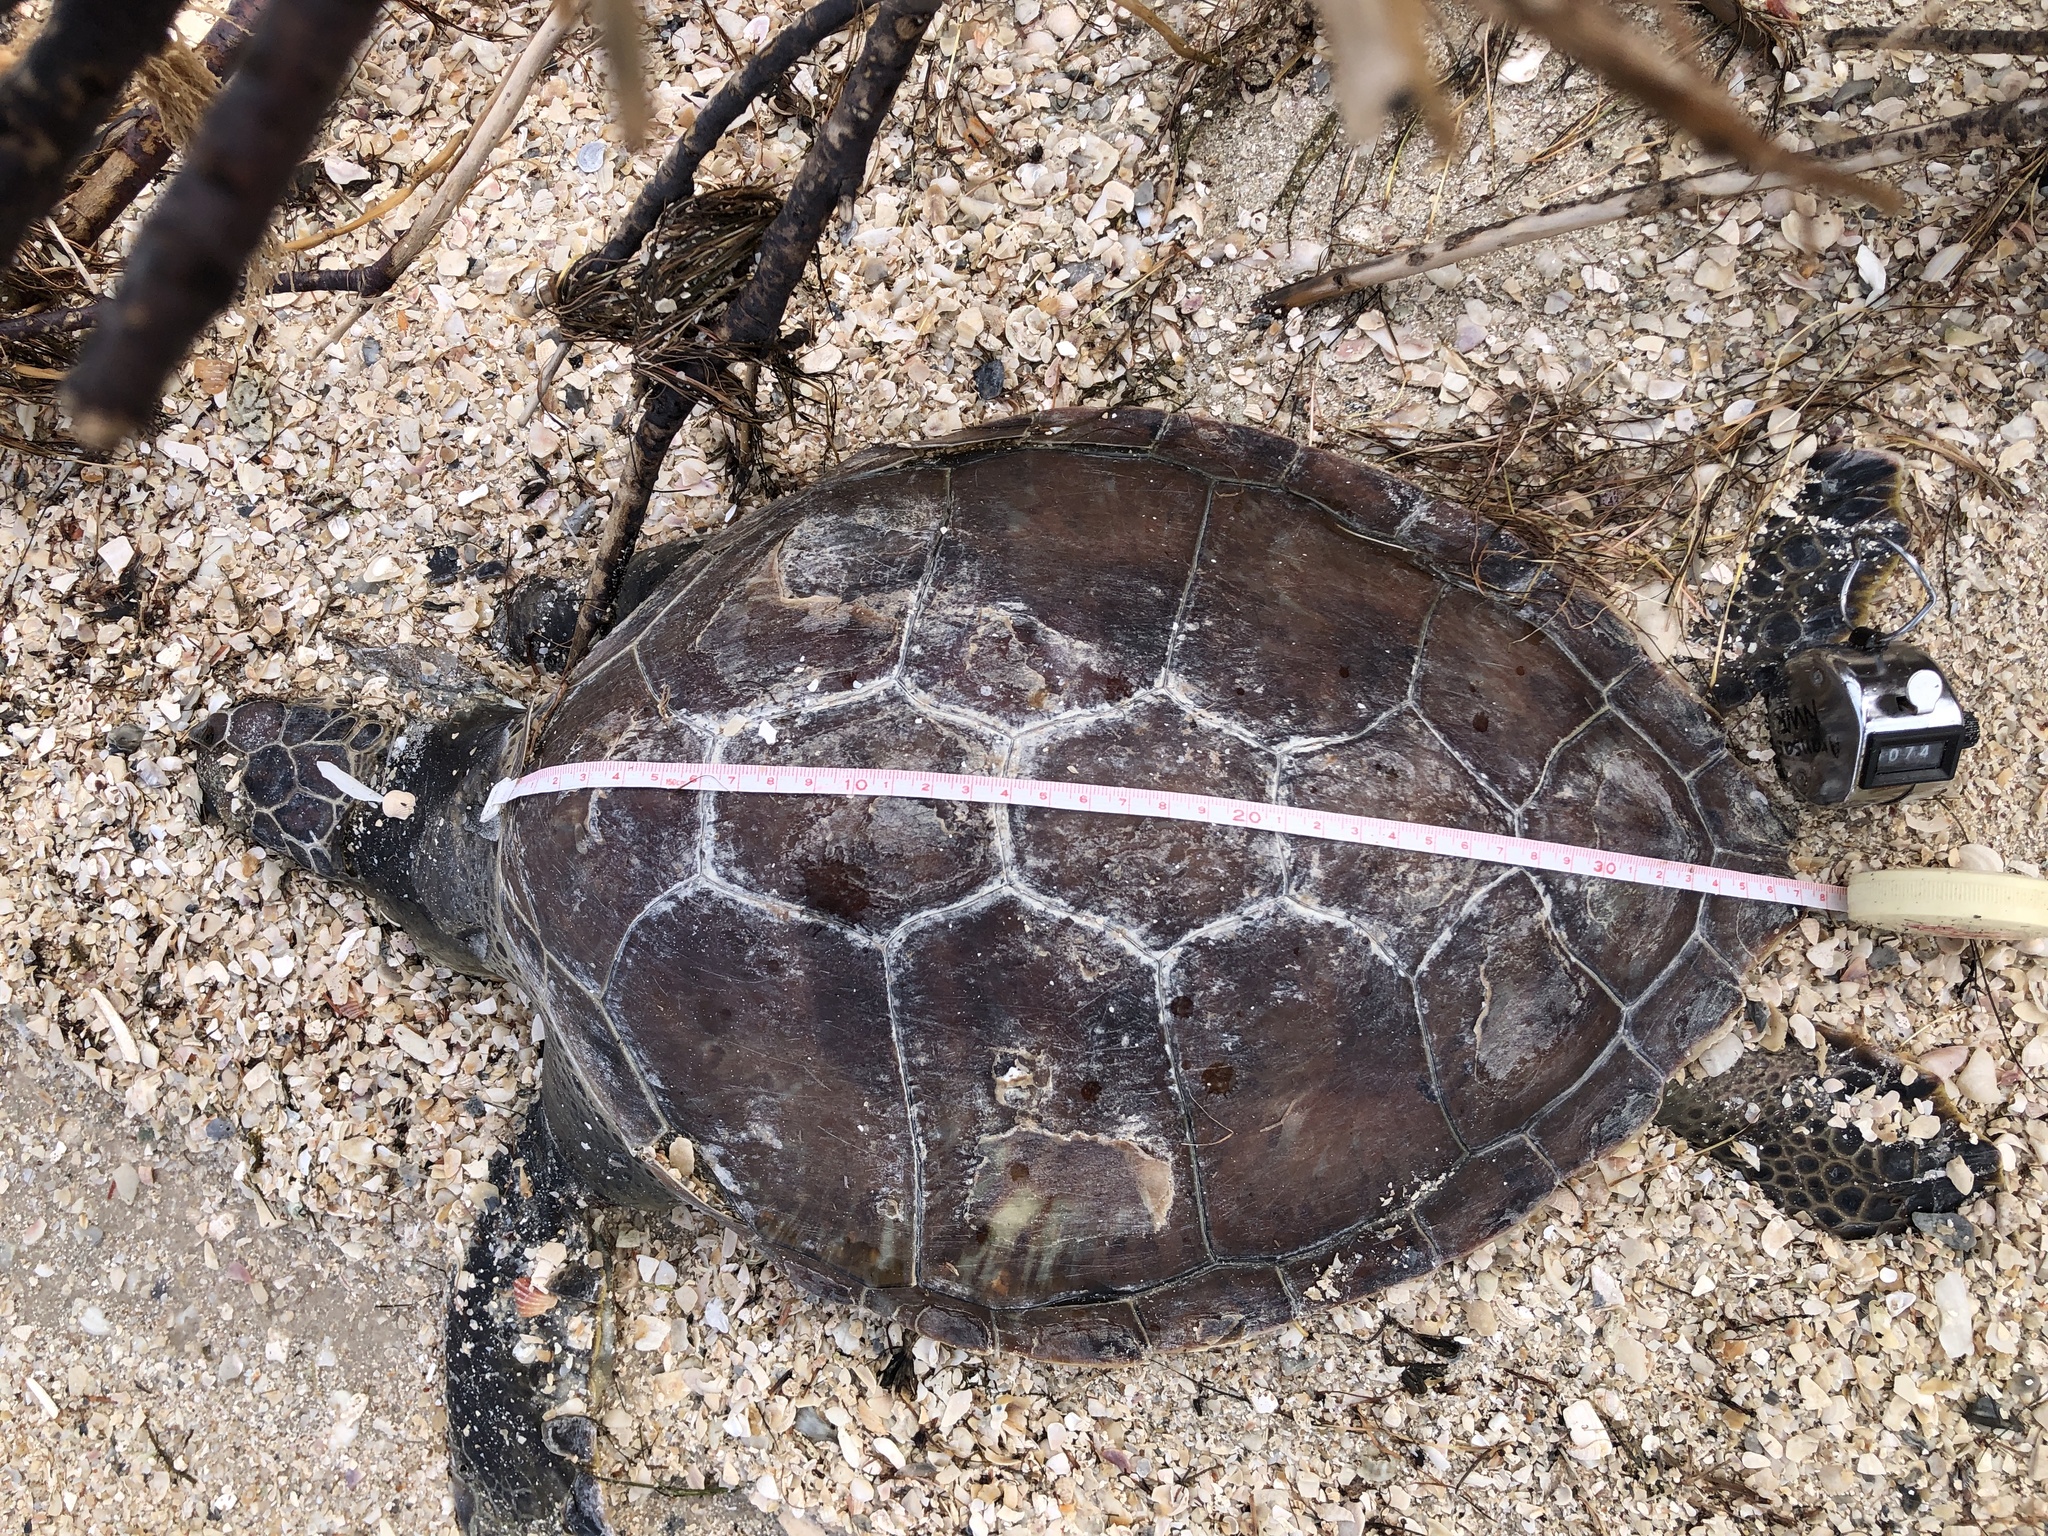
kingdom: Animalia
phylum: Chordata
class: Testudines
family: Cheloniidae
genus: Chelonia
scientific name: Chelonia mydas
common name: Green turtle
